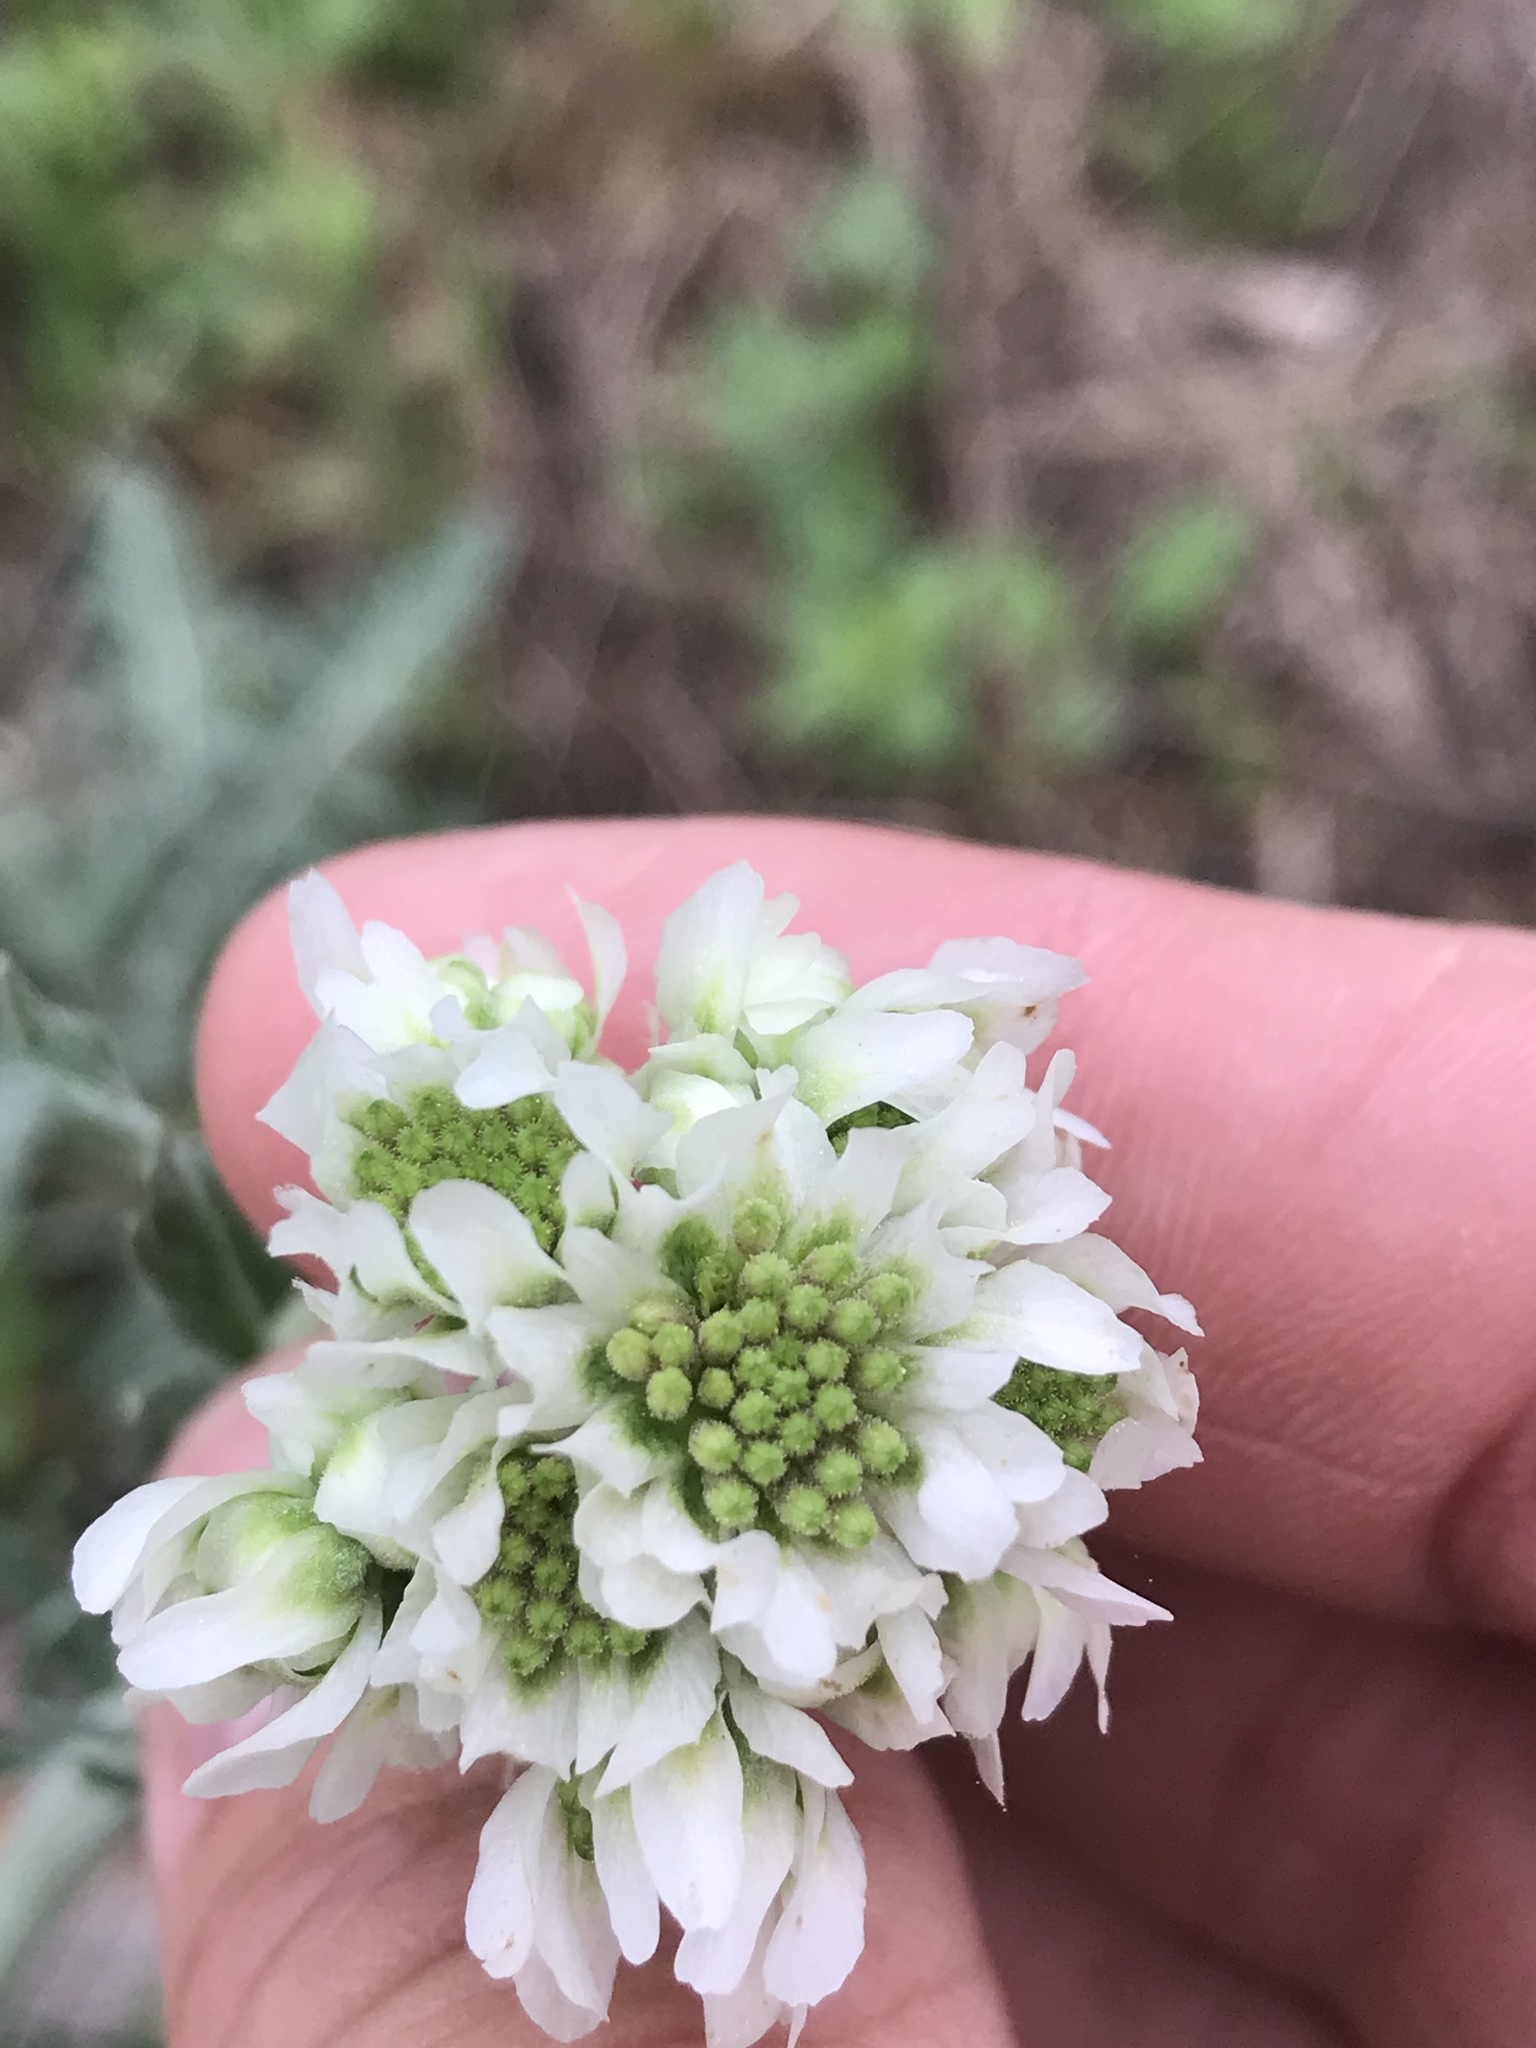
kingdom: Plantae
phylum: Tracheophyta
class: Magnoliopsida
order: Asterales
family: Asteraceae
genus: Hymenopappus
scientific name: Hymenopappus artemisiifolius
